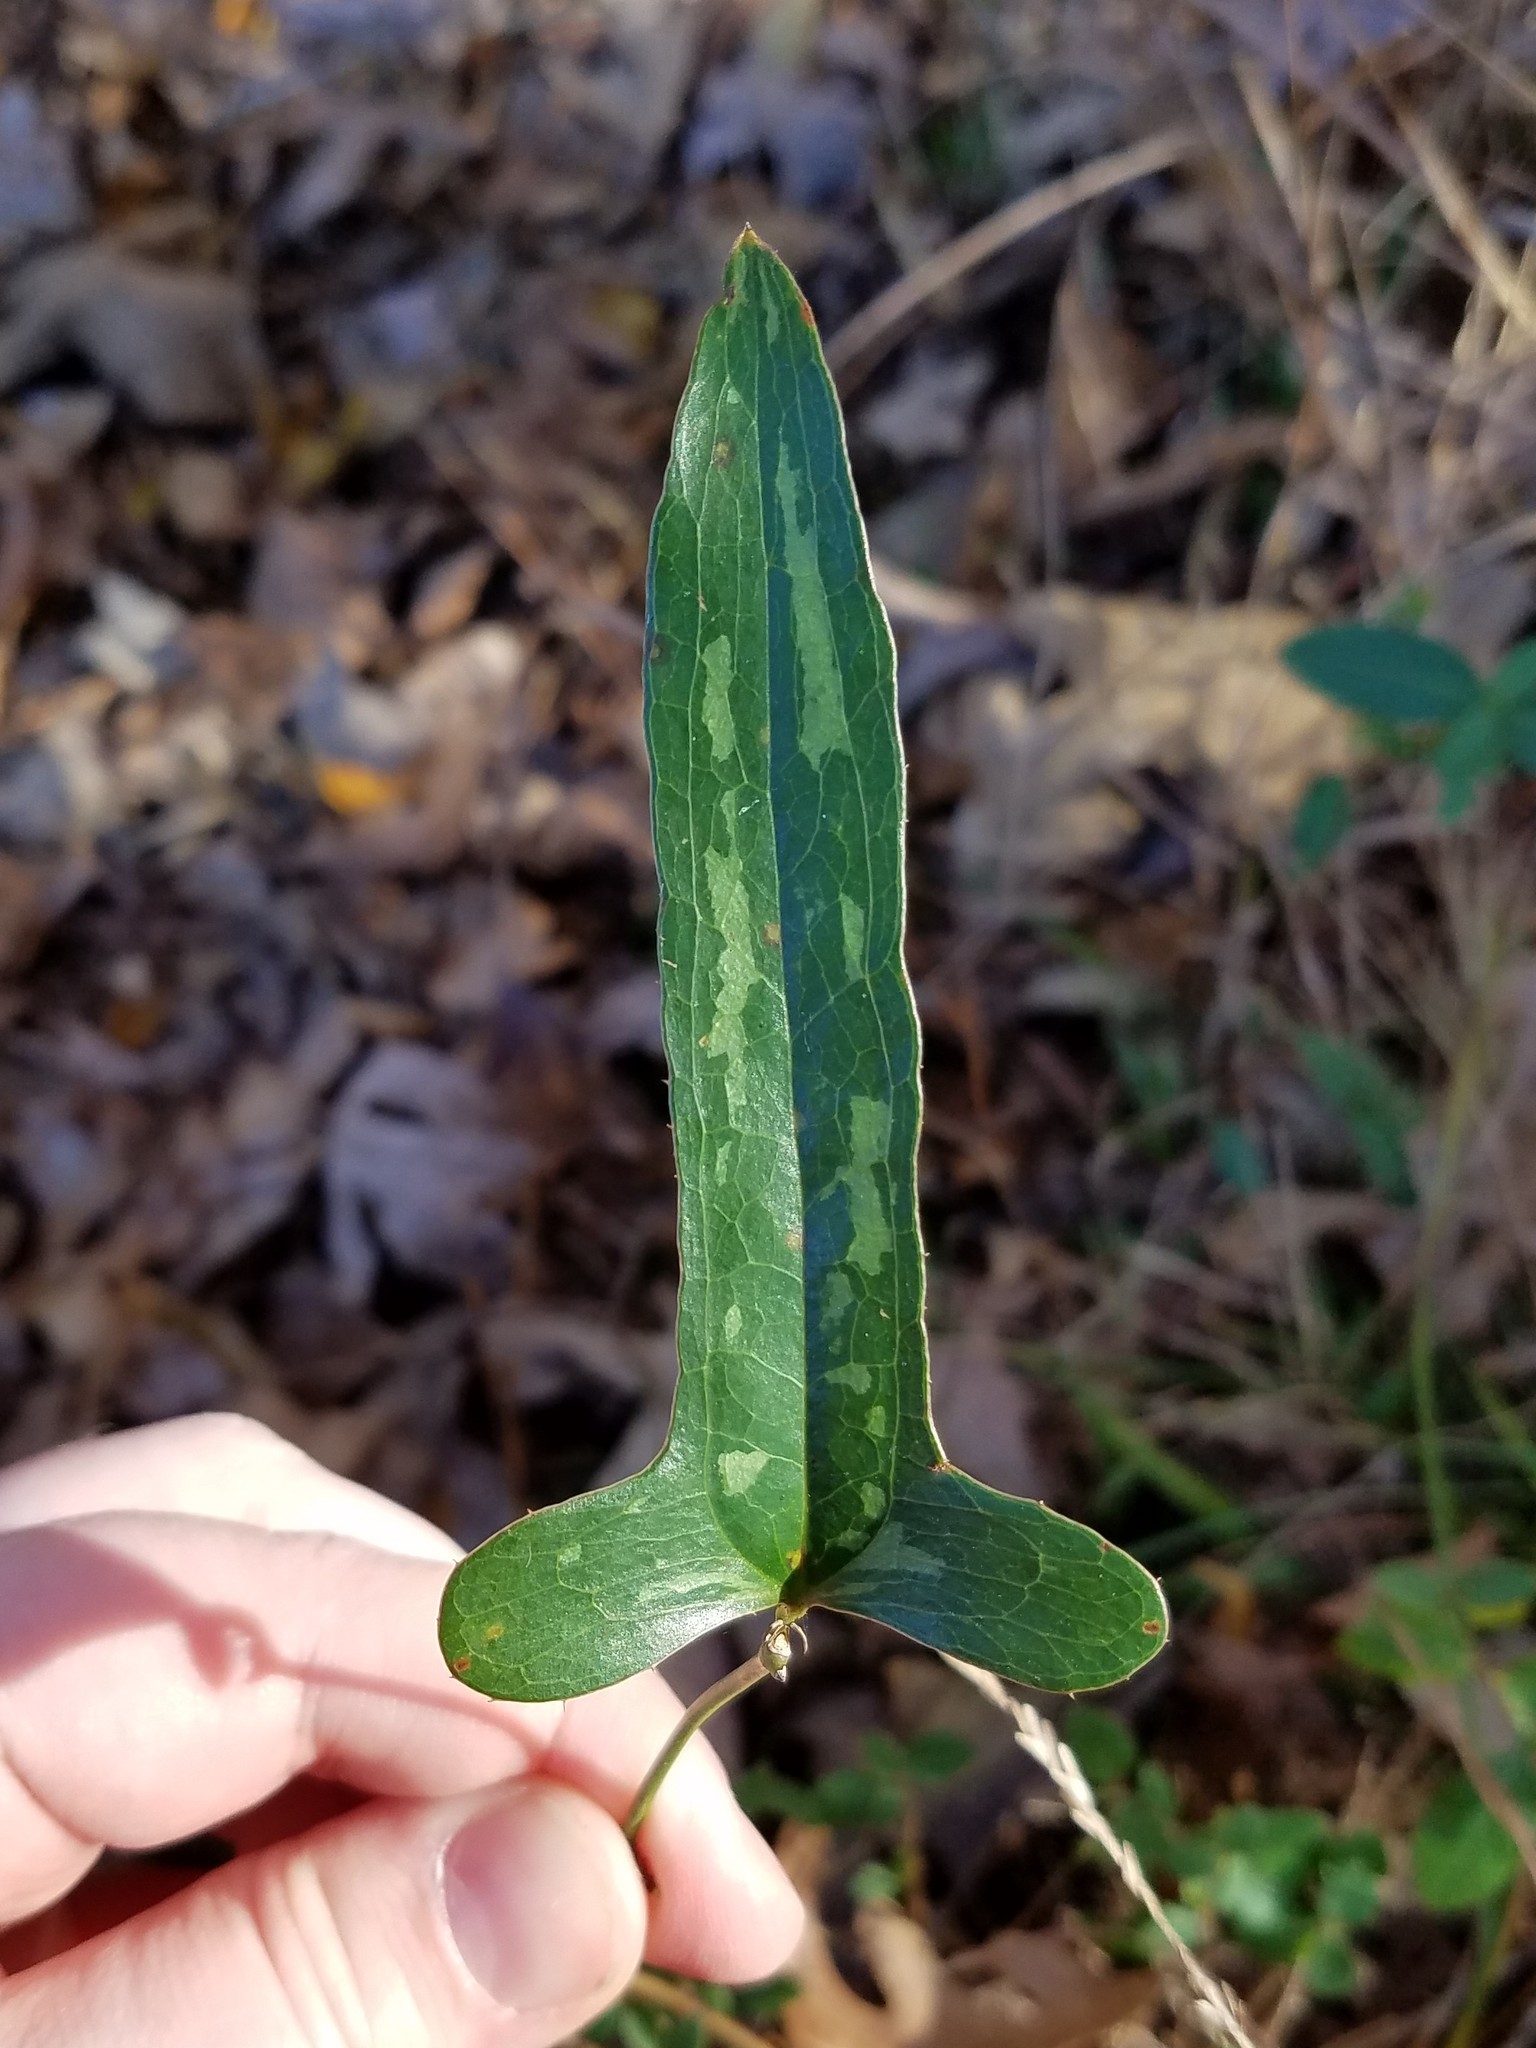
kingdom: Plantae
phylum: Tracheophyta
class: Liliopsida
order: Liliales
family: Smilacaceae
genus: Smilax
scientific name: Smilax bona-nox
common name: Catbrier
